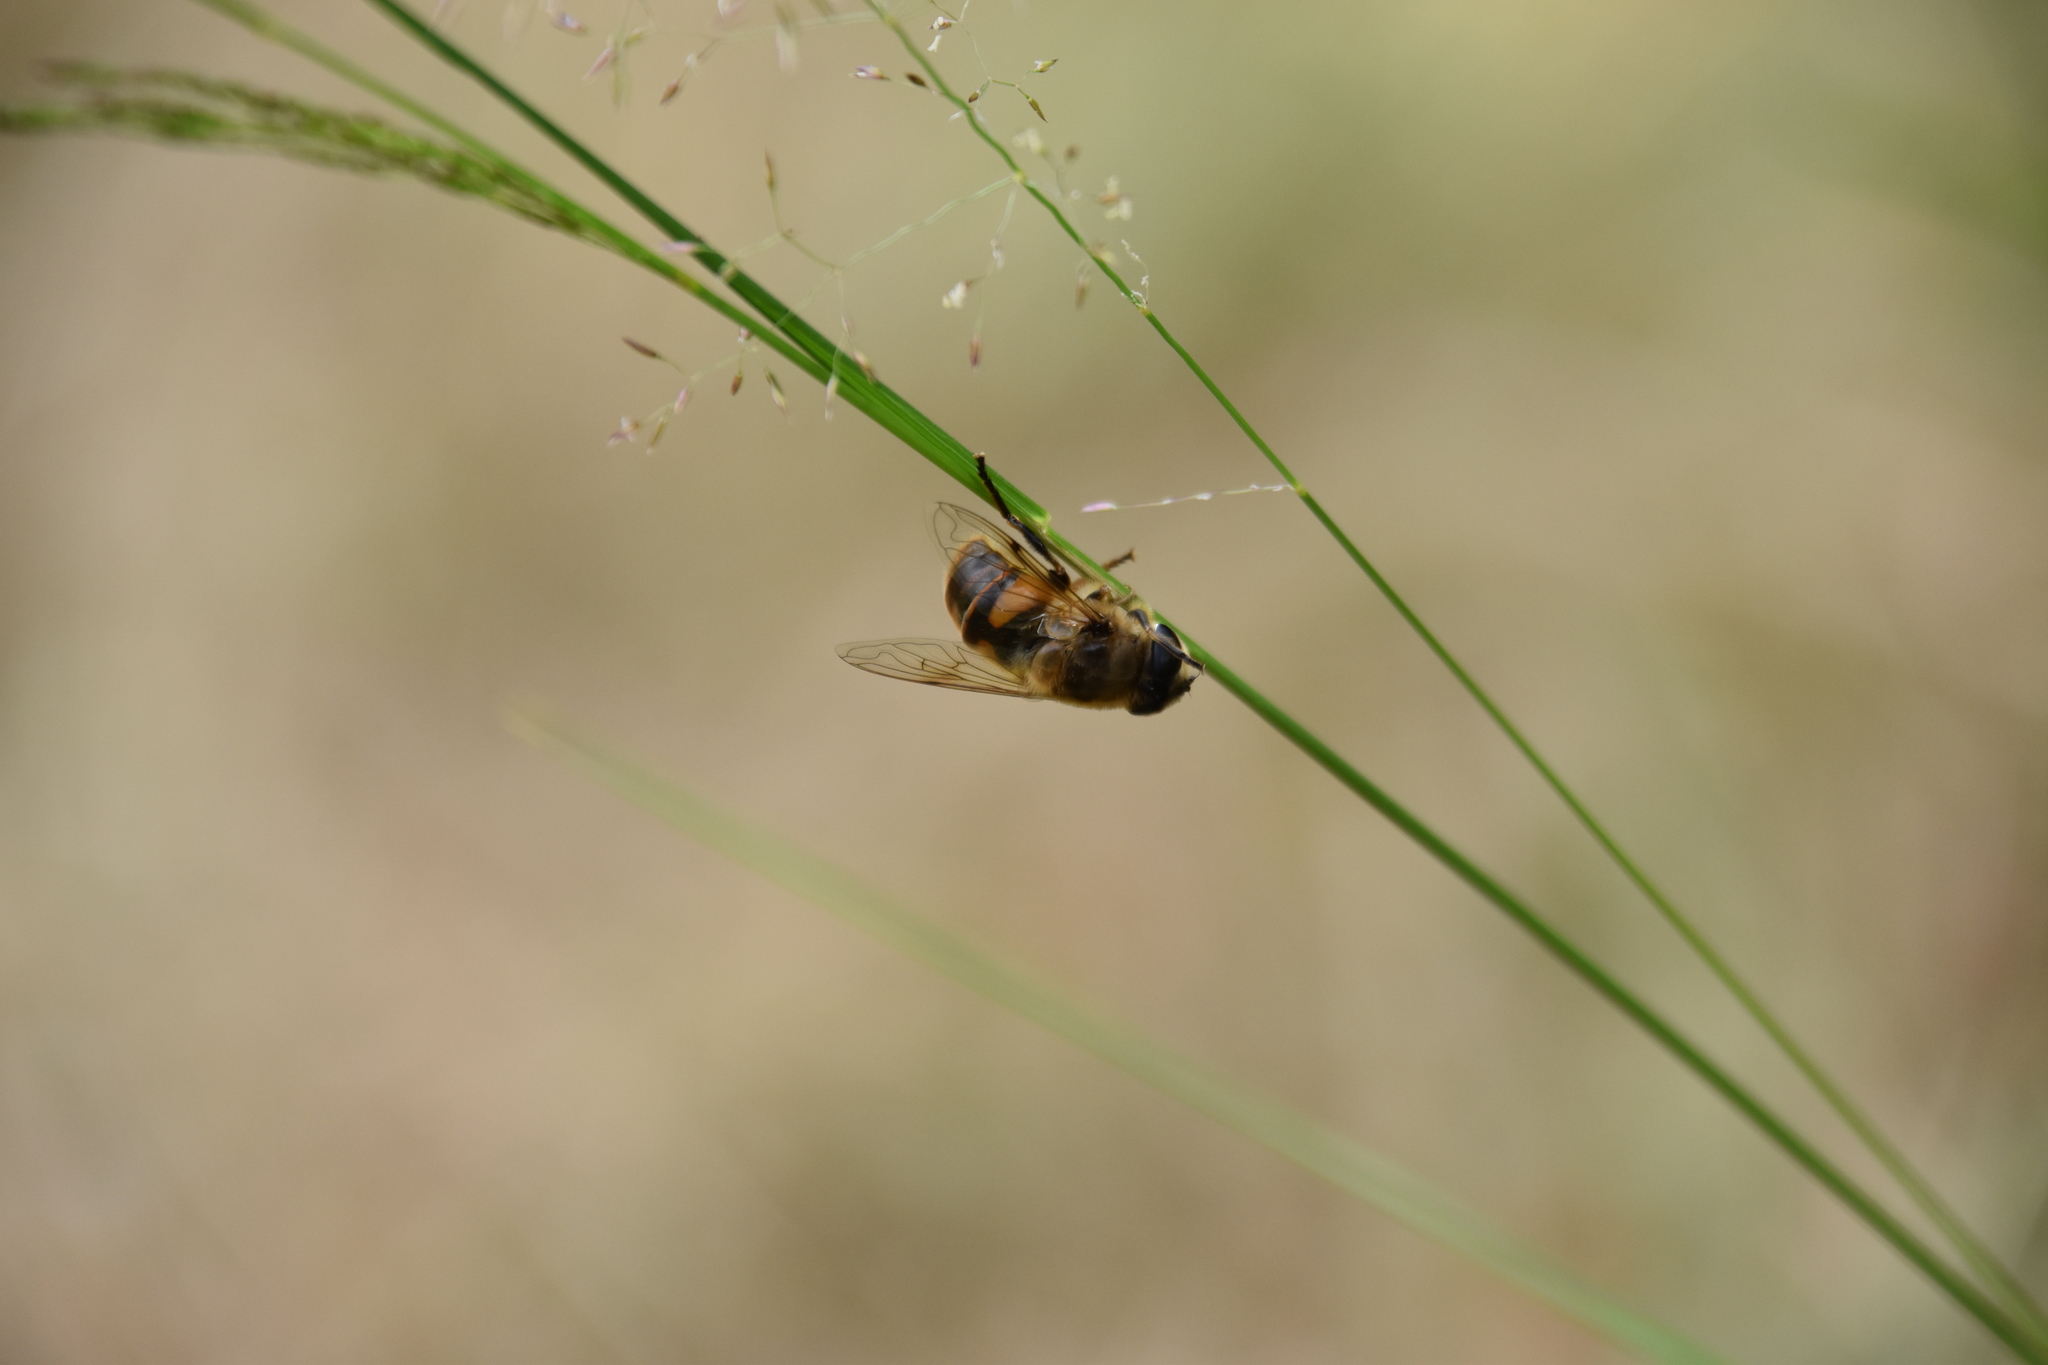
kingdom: Animalia
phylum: Arthropoda
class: Insecta
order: Diptera
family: Syrphidae
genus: Eristalis
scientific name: Eristalis tenax
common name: Drone fly
